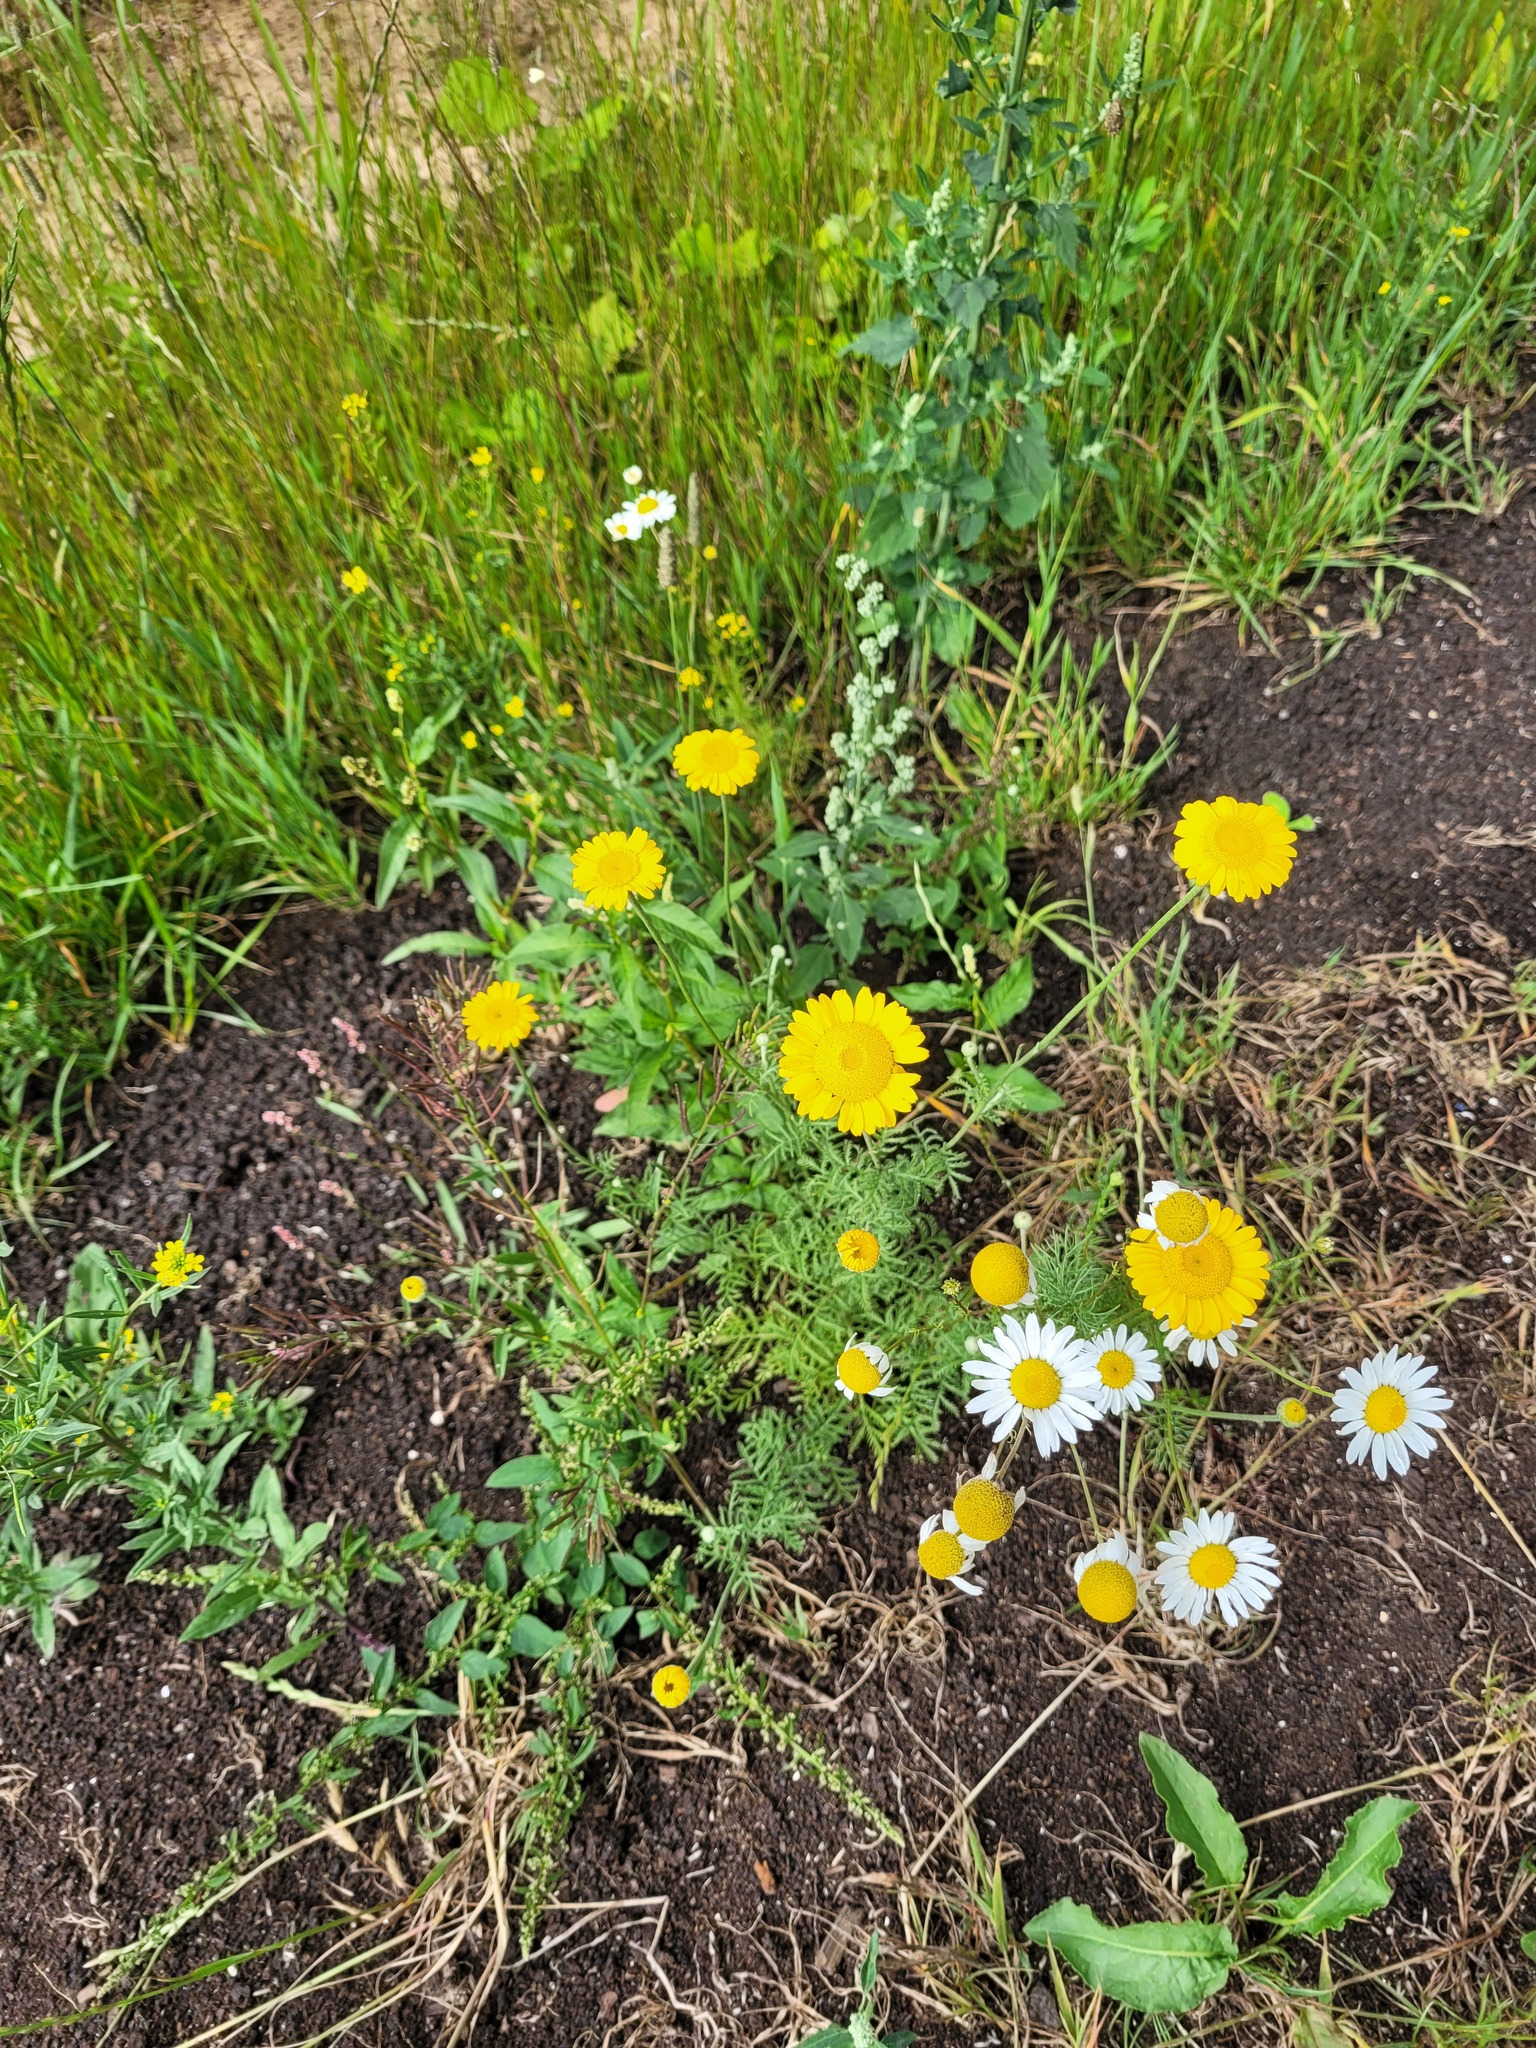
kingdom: Plantae
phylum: Tracheophyta
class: Magnoliopsida
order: Asterales
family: Asteraceae
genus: Cota
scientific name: Cota tinctoria
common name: Golden chamomile
